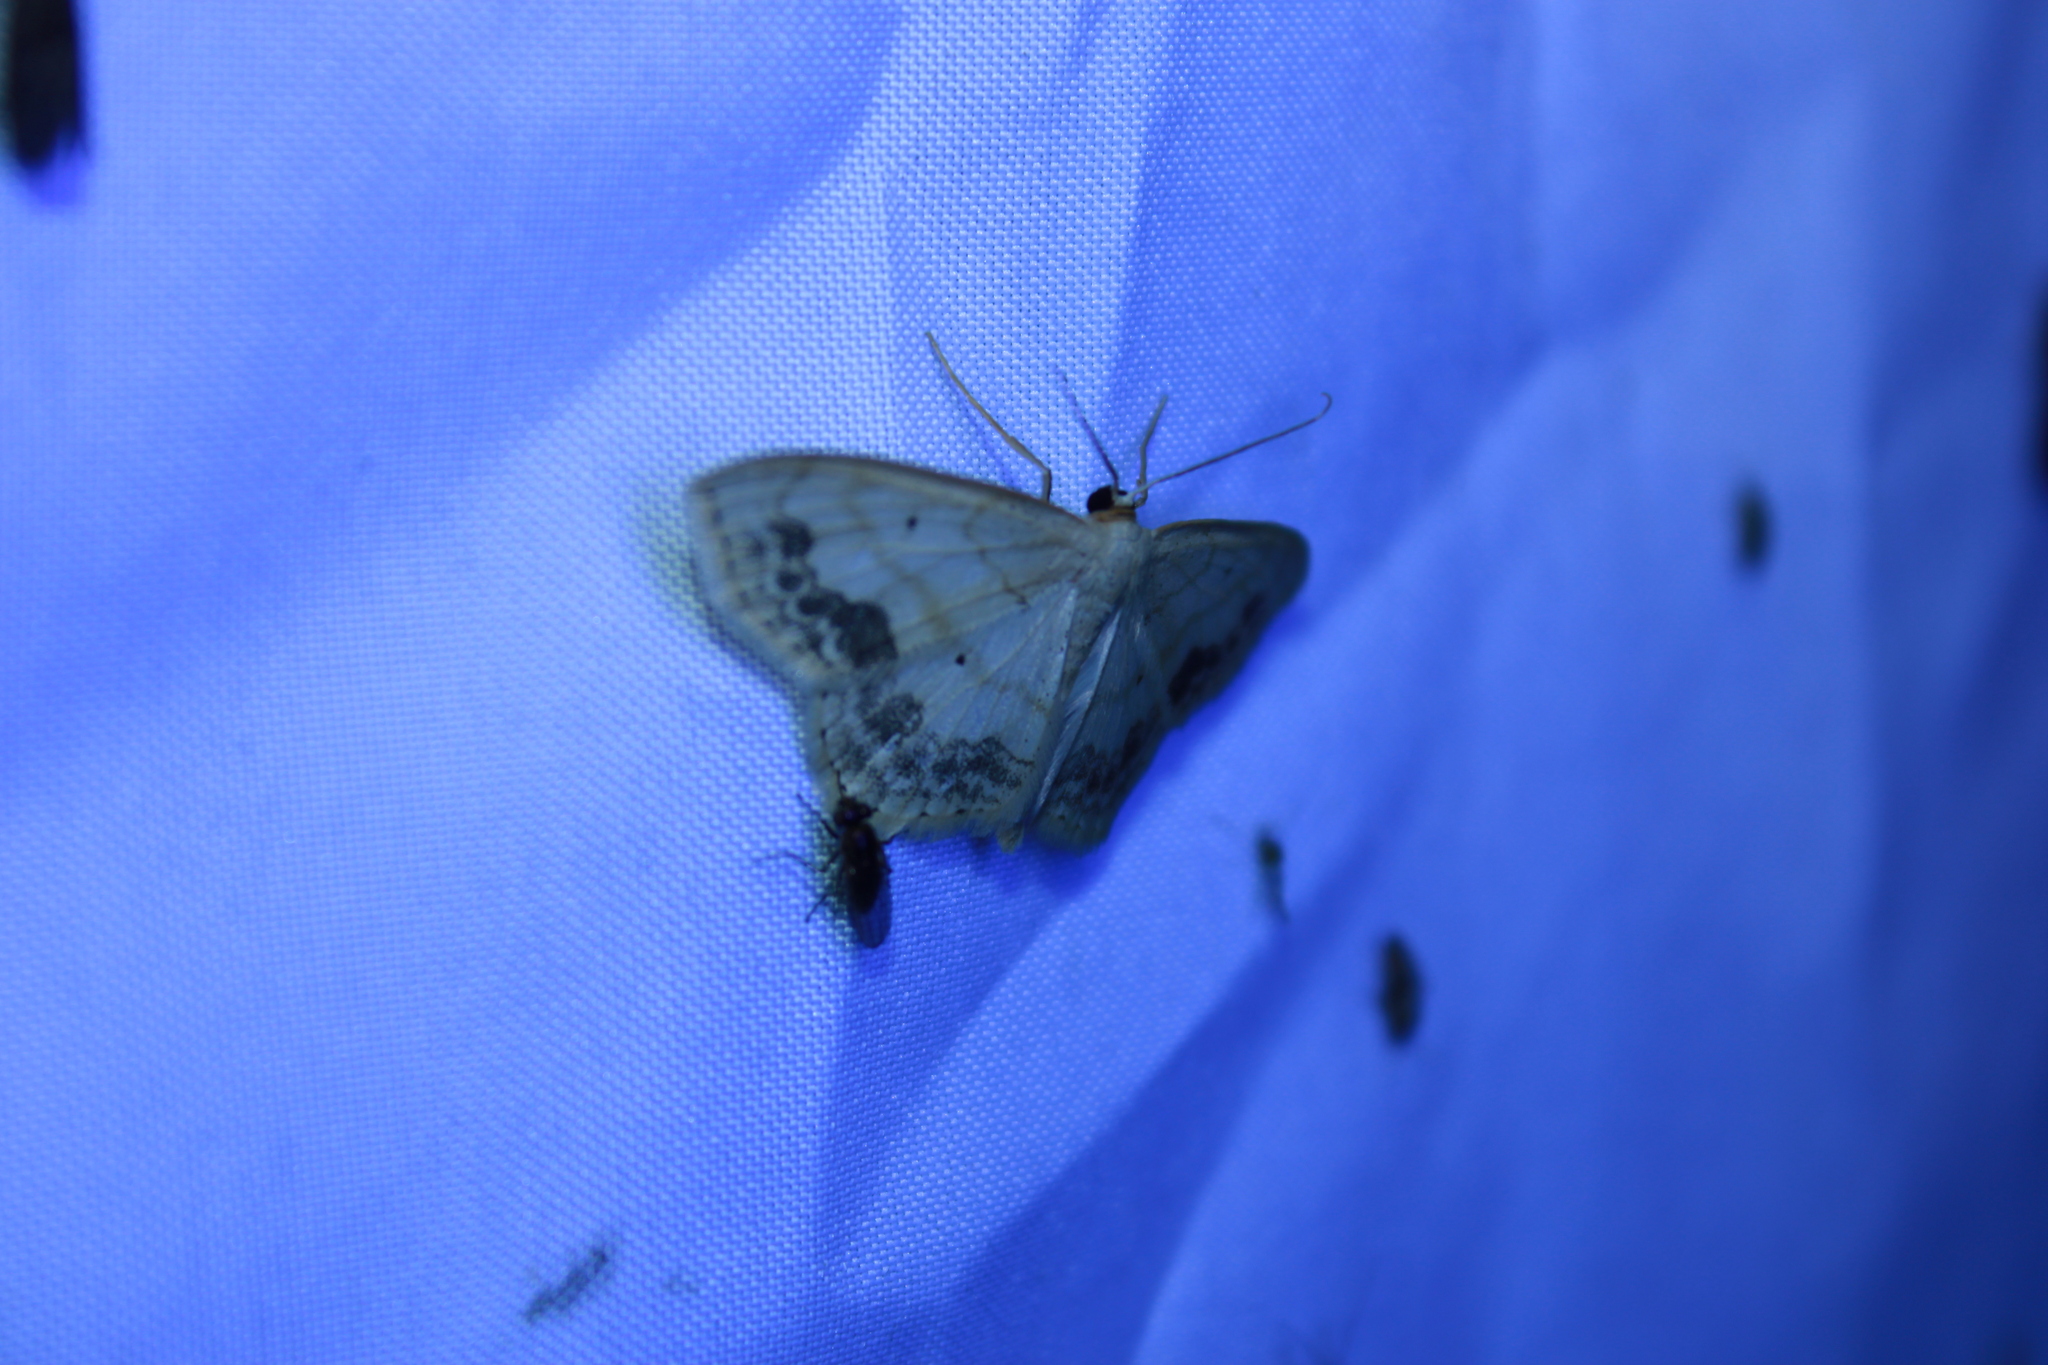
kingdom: Animalia
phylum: Arthropoda
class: Insecta
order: Lepidoptera
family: Geometridae
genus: Scopula
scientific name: Scopula limboundata
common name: Large lace border
